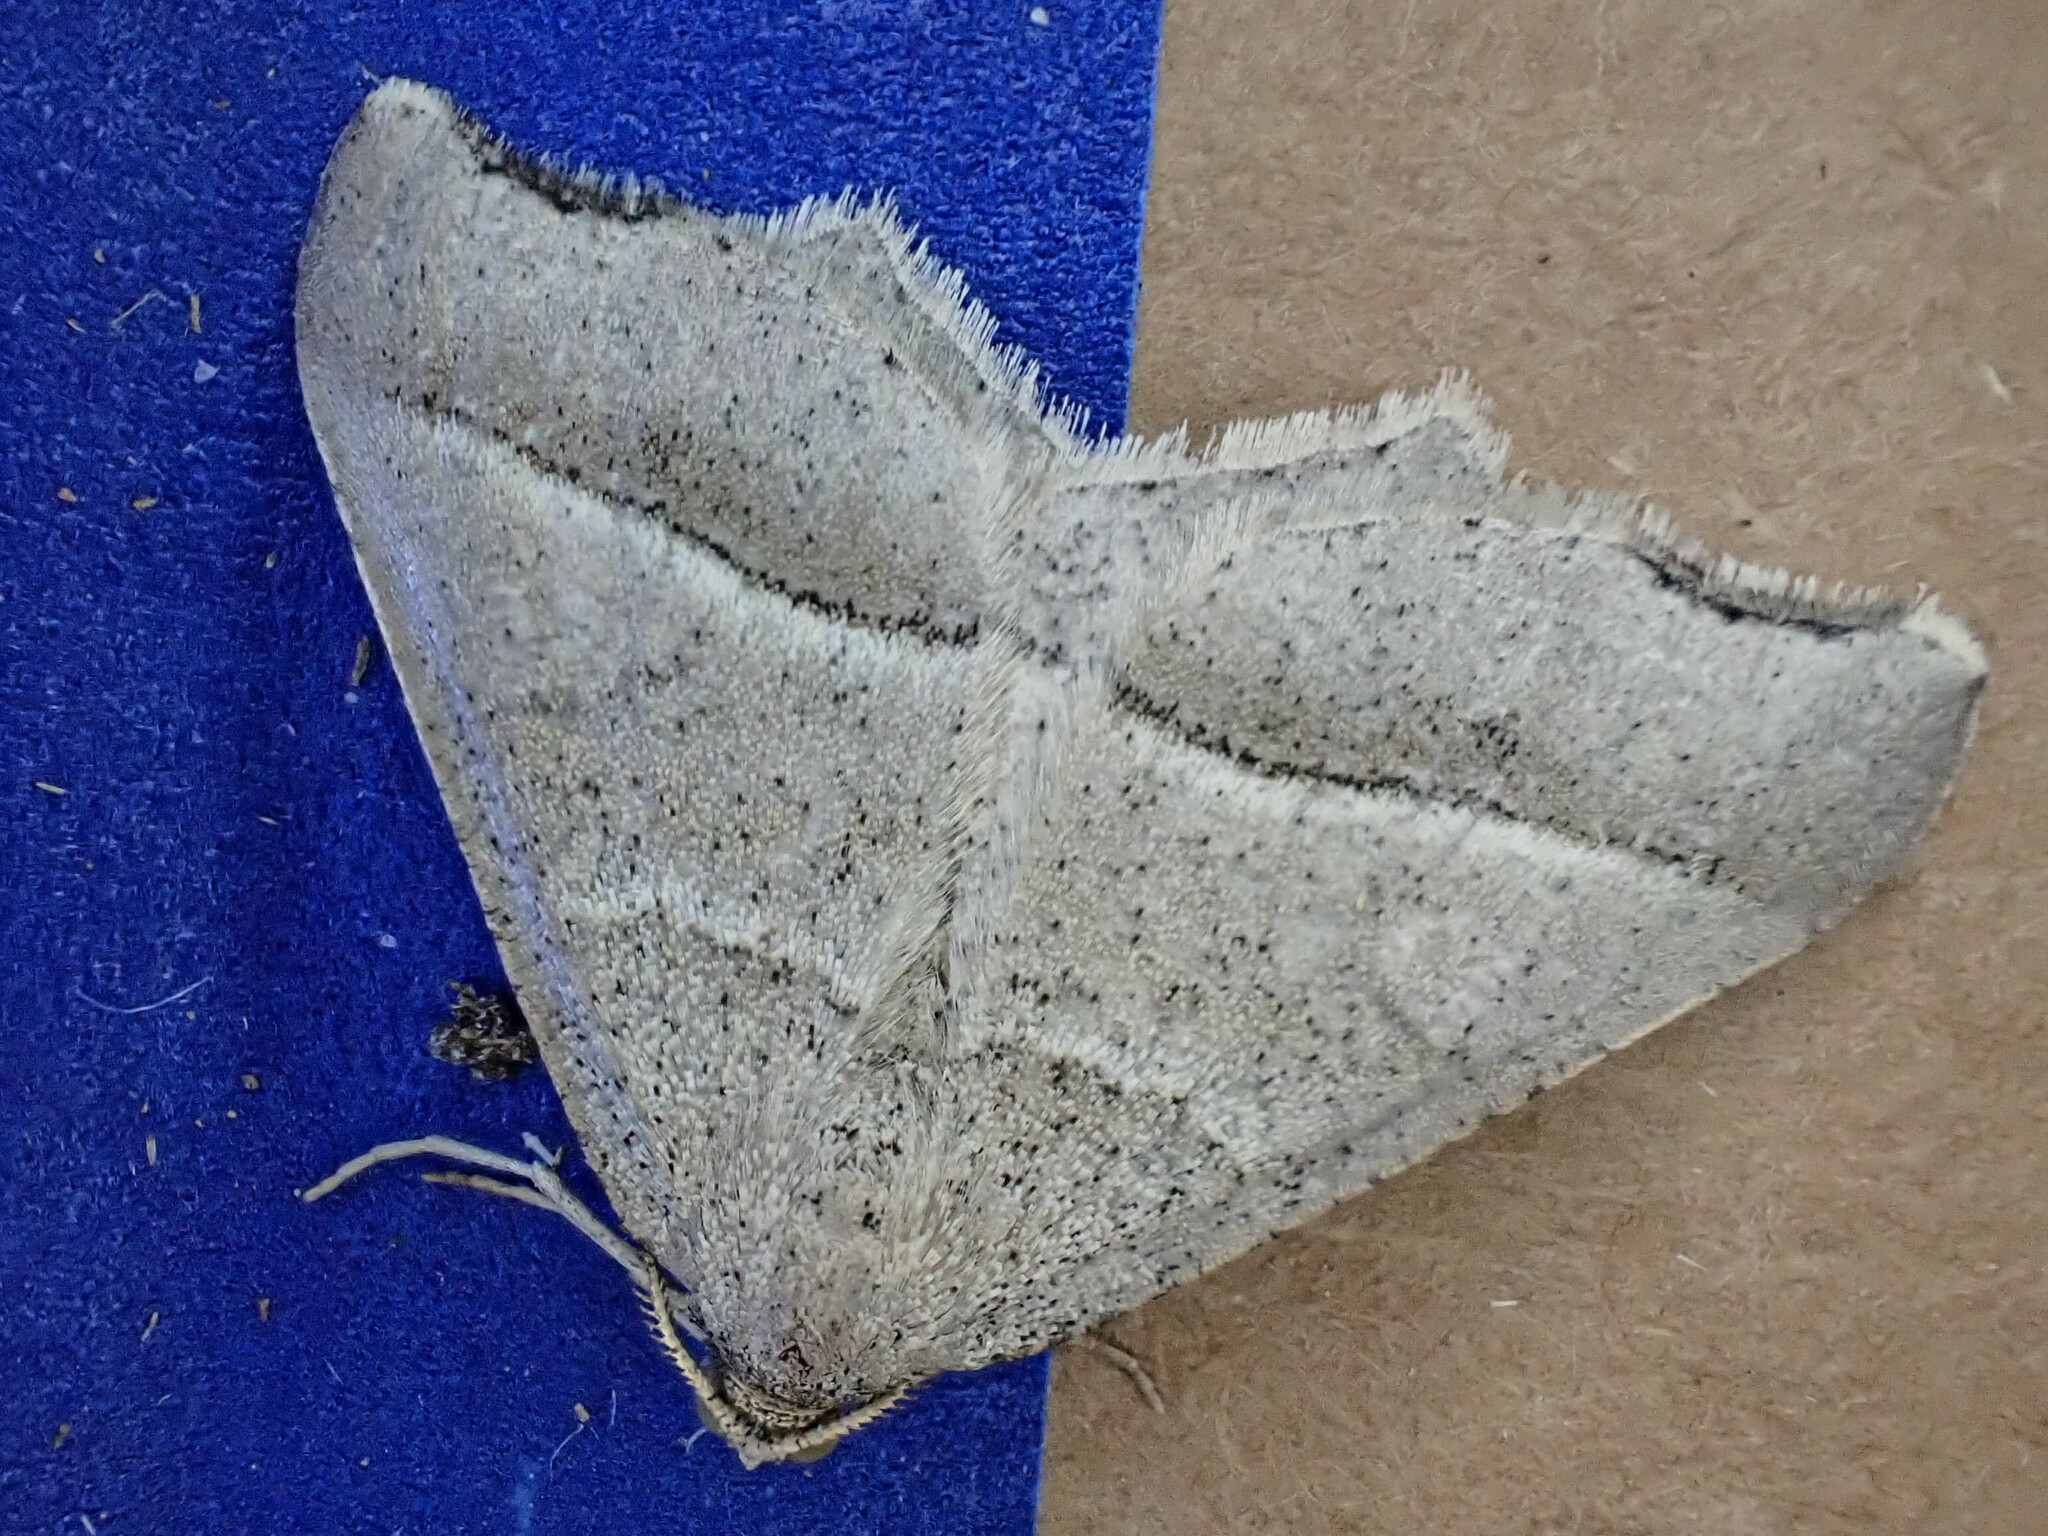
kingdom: Animalia
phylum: Arthropoda
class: Insecta
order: Lepidoptera
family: Geometridae
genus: Macaria
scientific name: Macaria metanemaria
